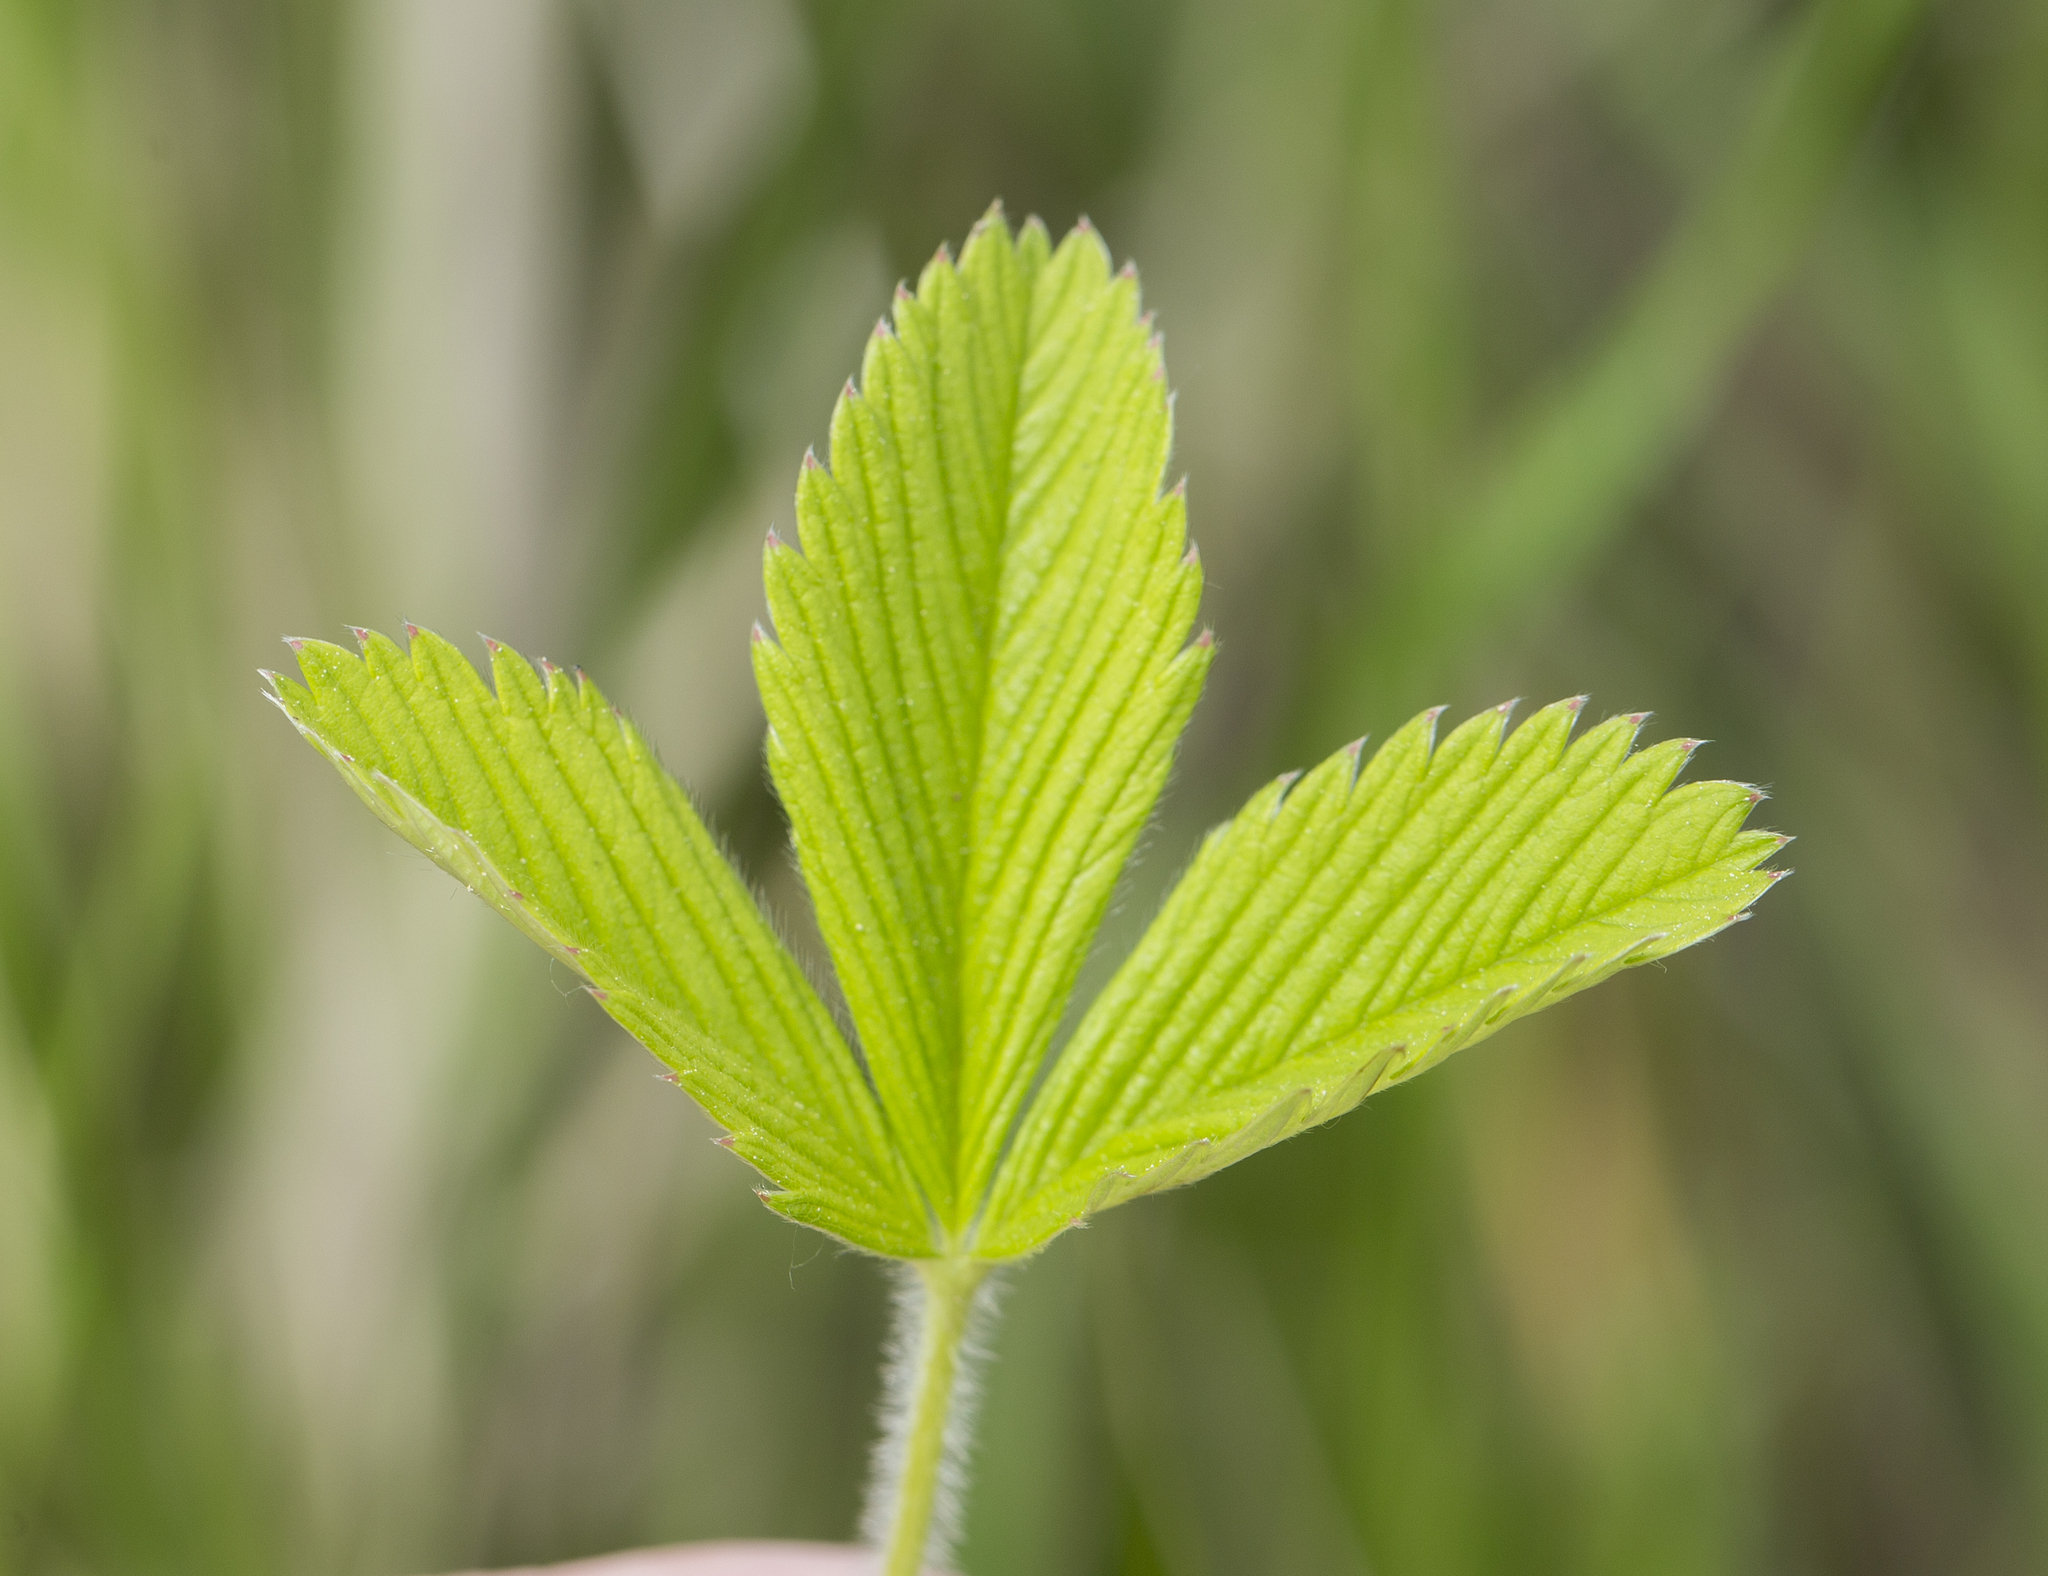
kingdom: Plantae
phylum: Tracheophyta
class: Magnoliopsida
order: Rosales
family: Rosaceae
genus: Fragaria
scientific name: Fragaria viridis
